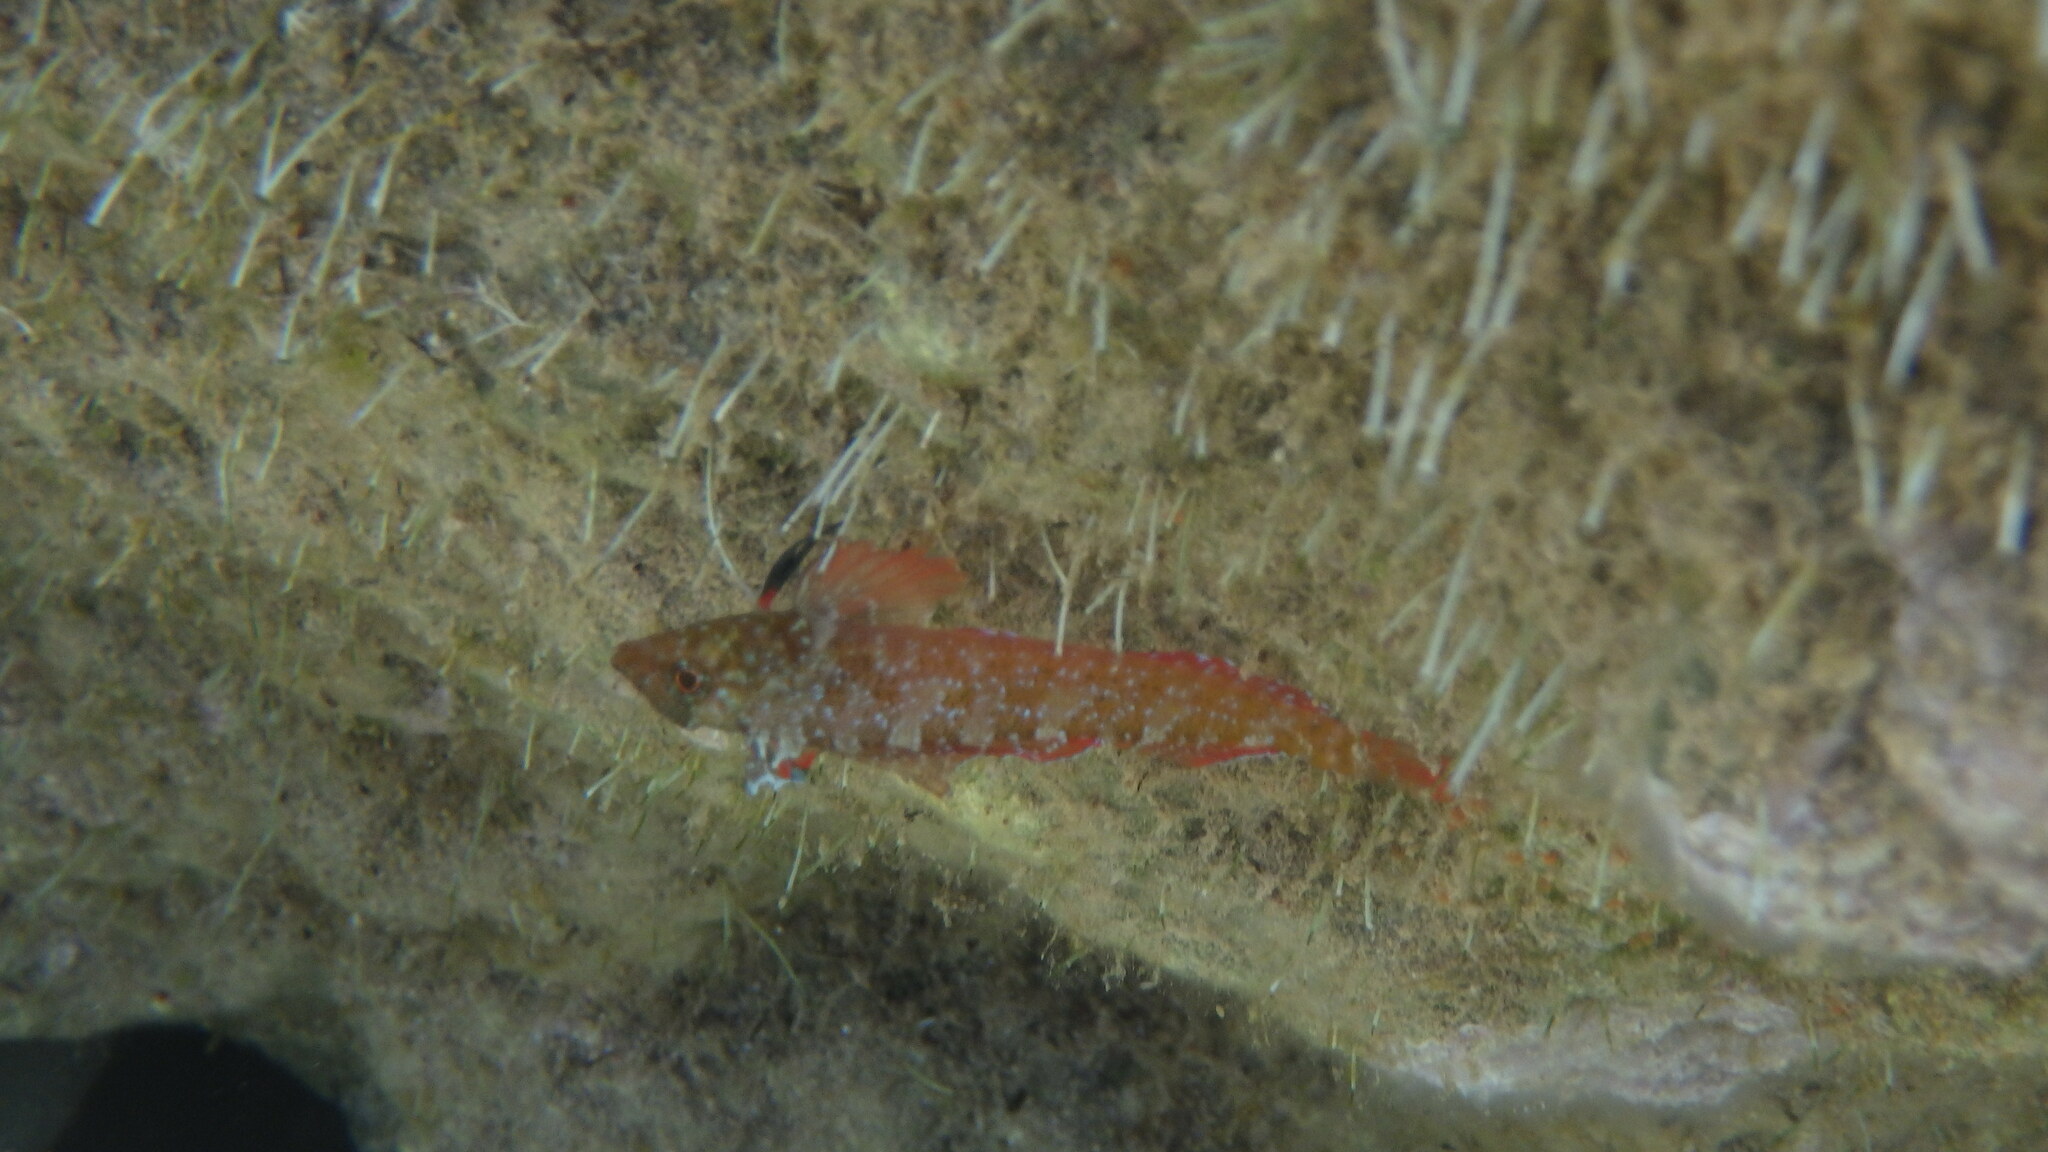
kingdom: Animalia
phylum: Chordata
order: Perciformes
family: Tripterygiidae
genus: Tripterygion
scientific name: Tripterygion tripteronotum
